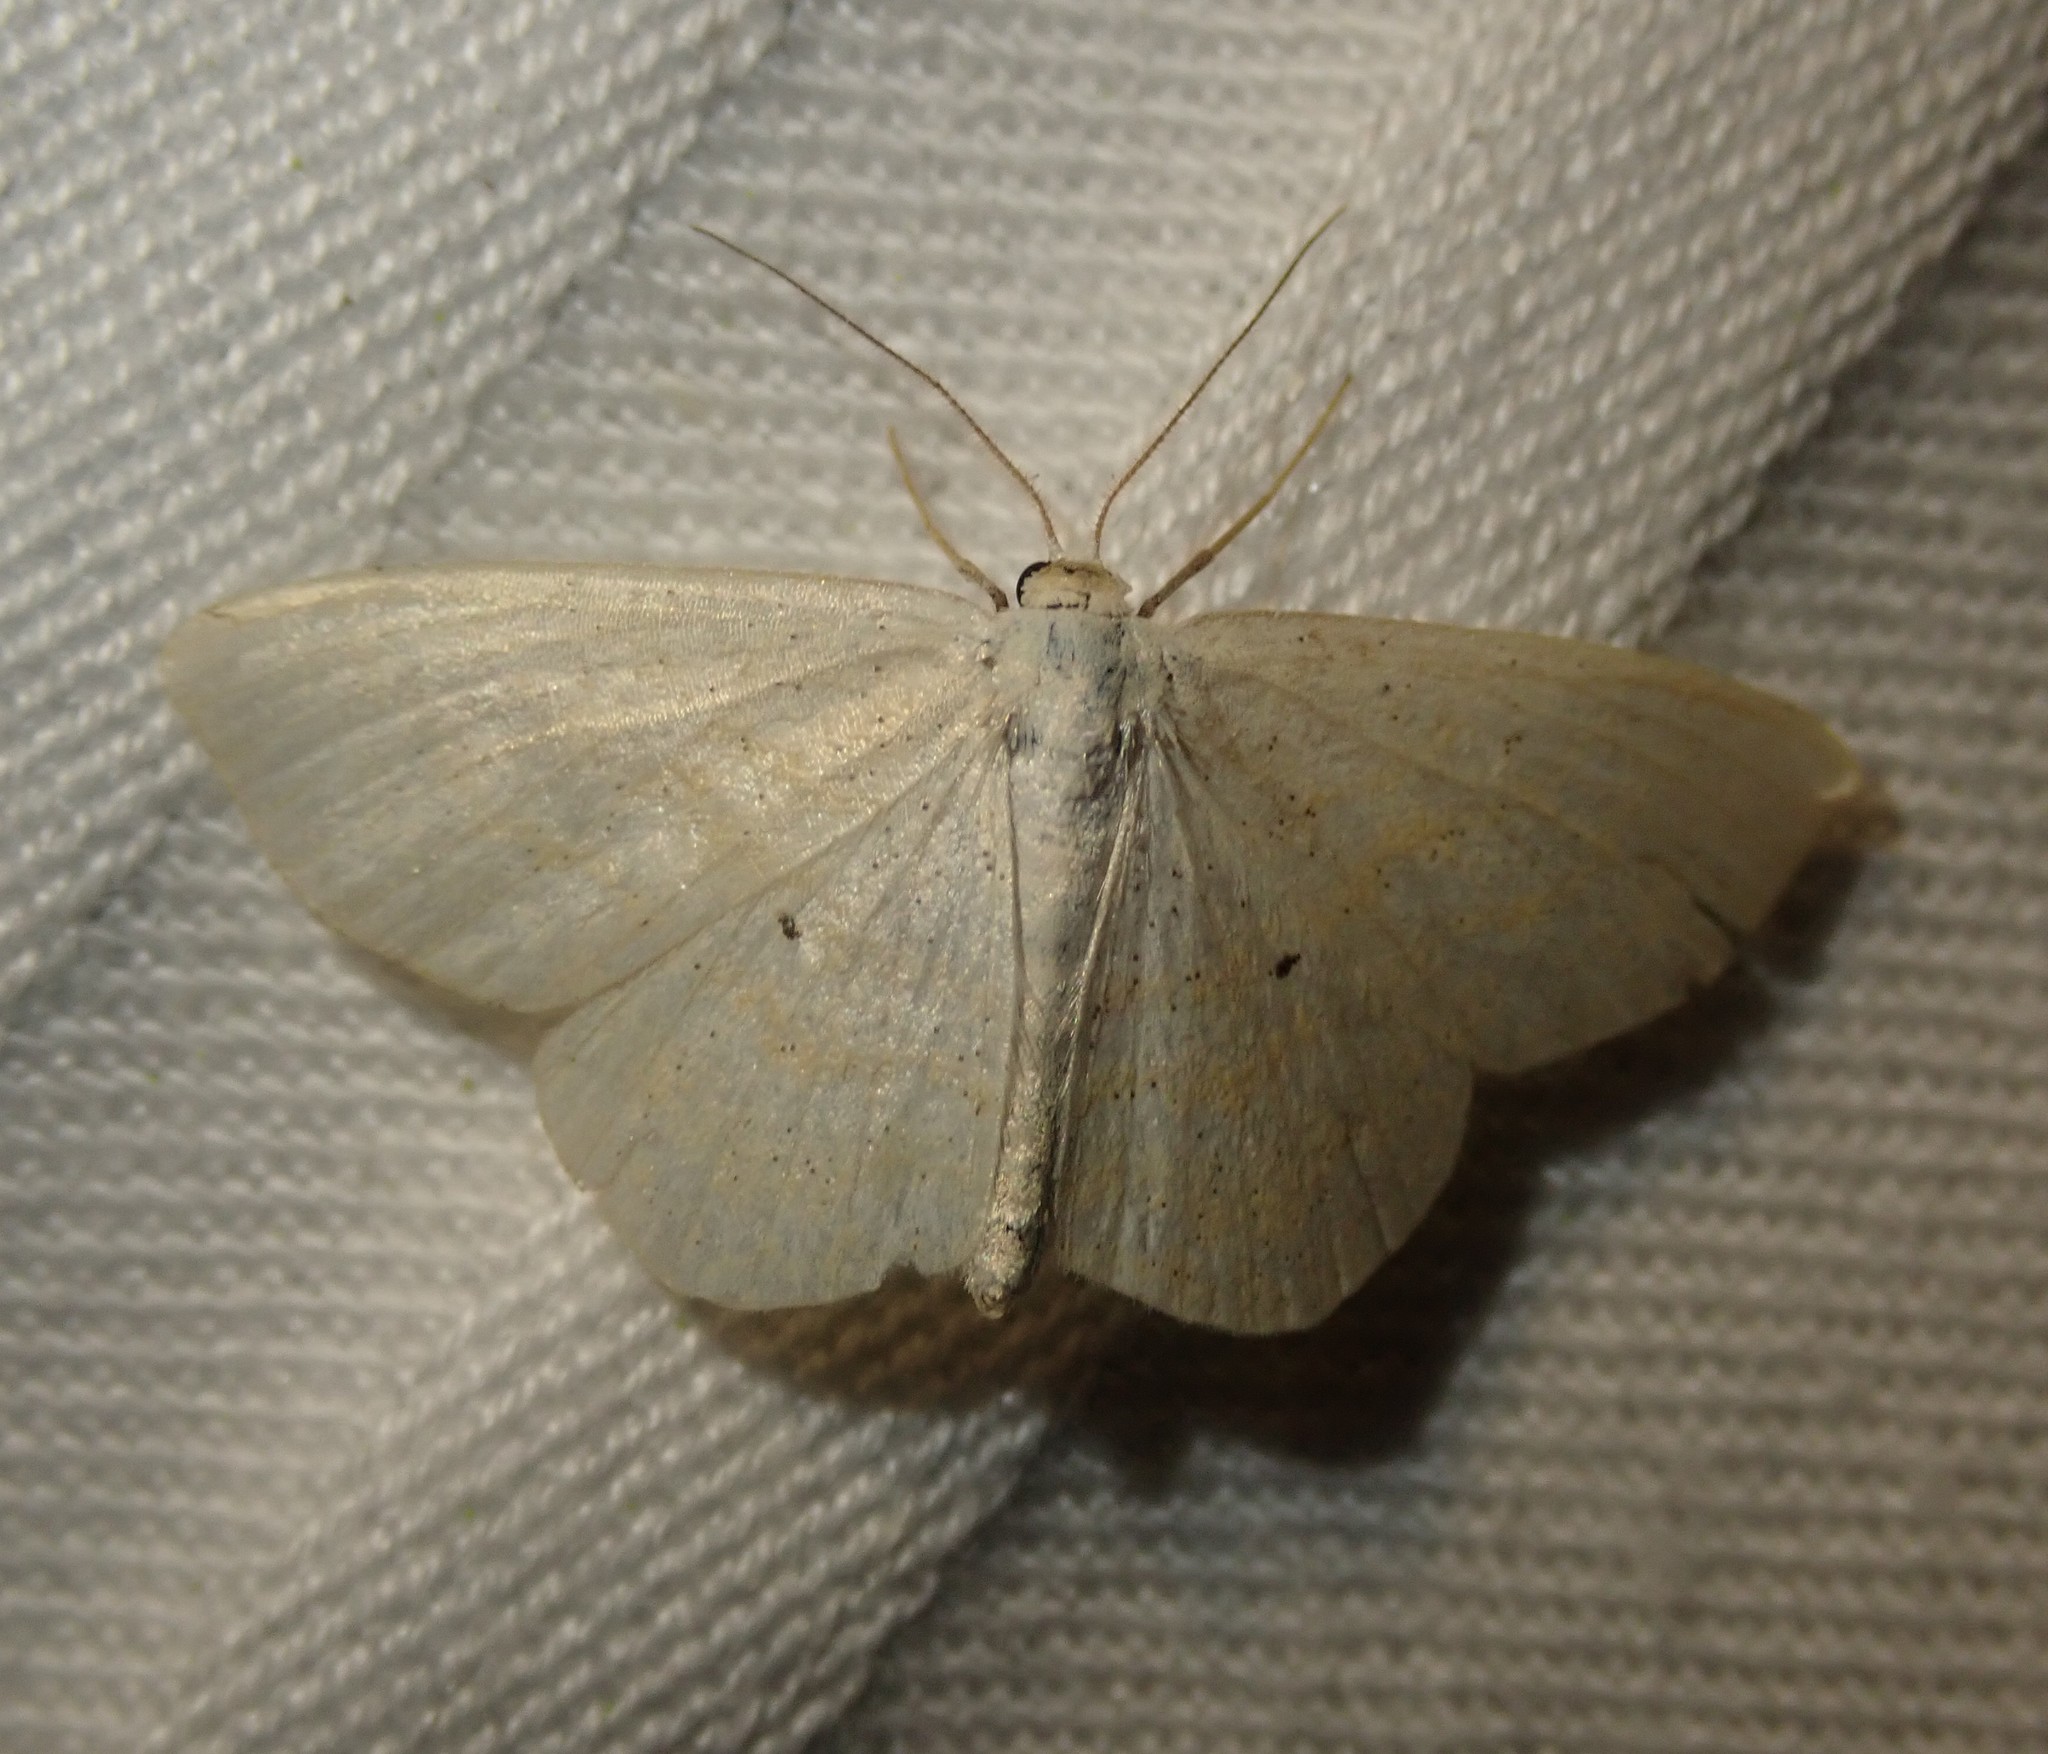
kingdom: Animalia
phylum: Arthropoda
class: Insecta
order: Lepidoptera
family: Geometridae
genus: Scopula
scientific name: Scopula immutata
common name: Lesser cream wave
